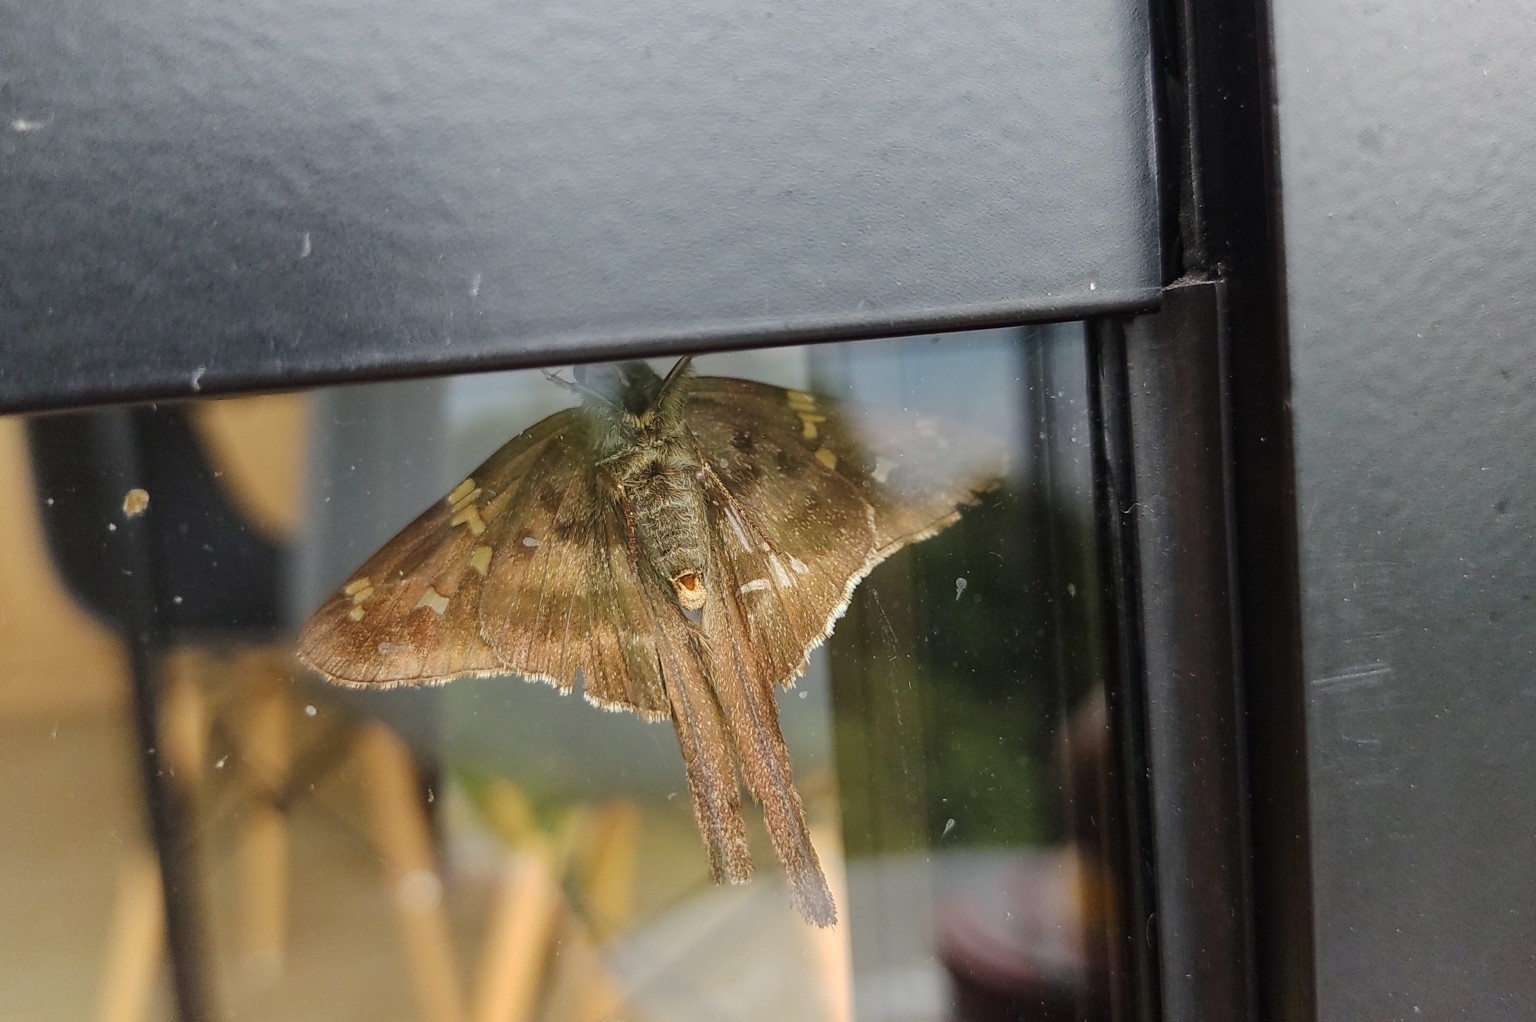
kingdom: Animalia
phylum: Arthropoda
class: Insecta
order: Lepidoptera
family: Hesperiidae
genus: Urbanus
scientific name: Urbanus proteus
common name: Long-tailed skipper
